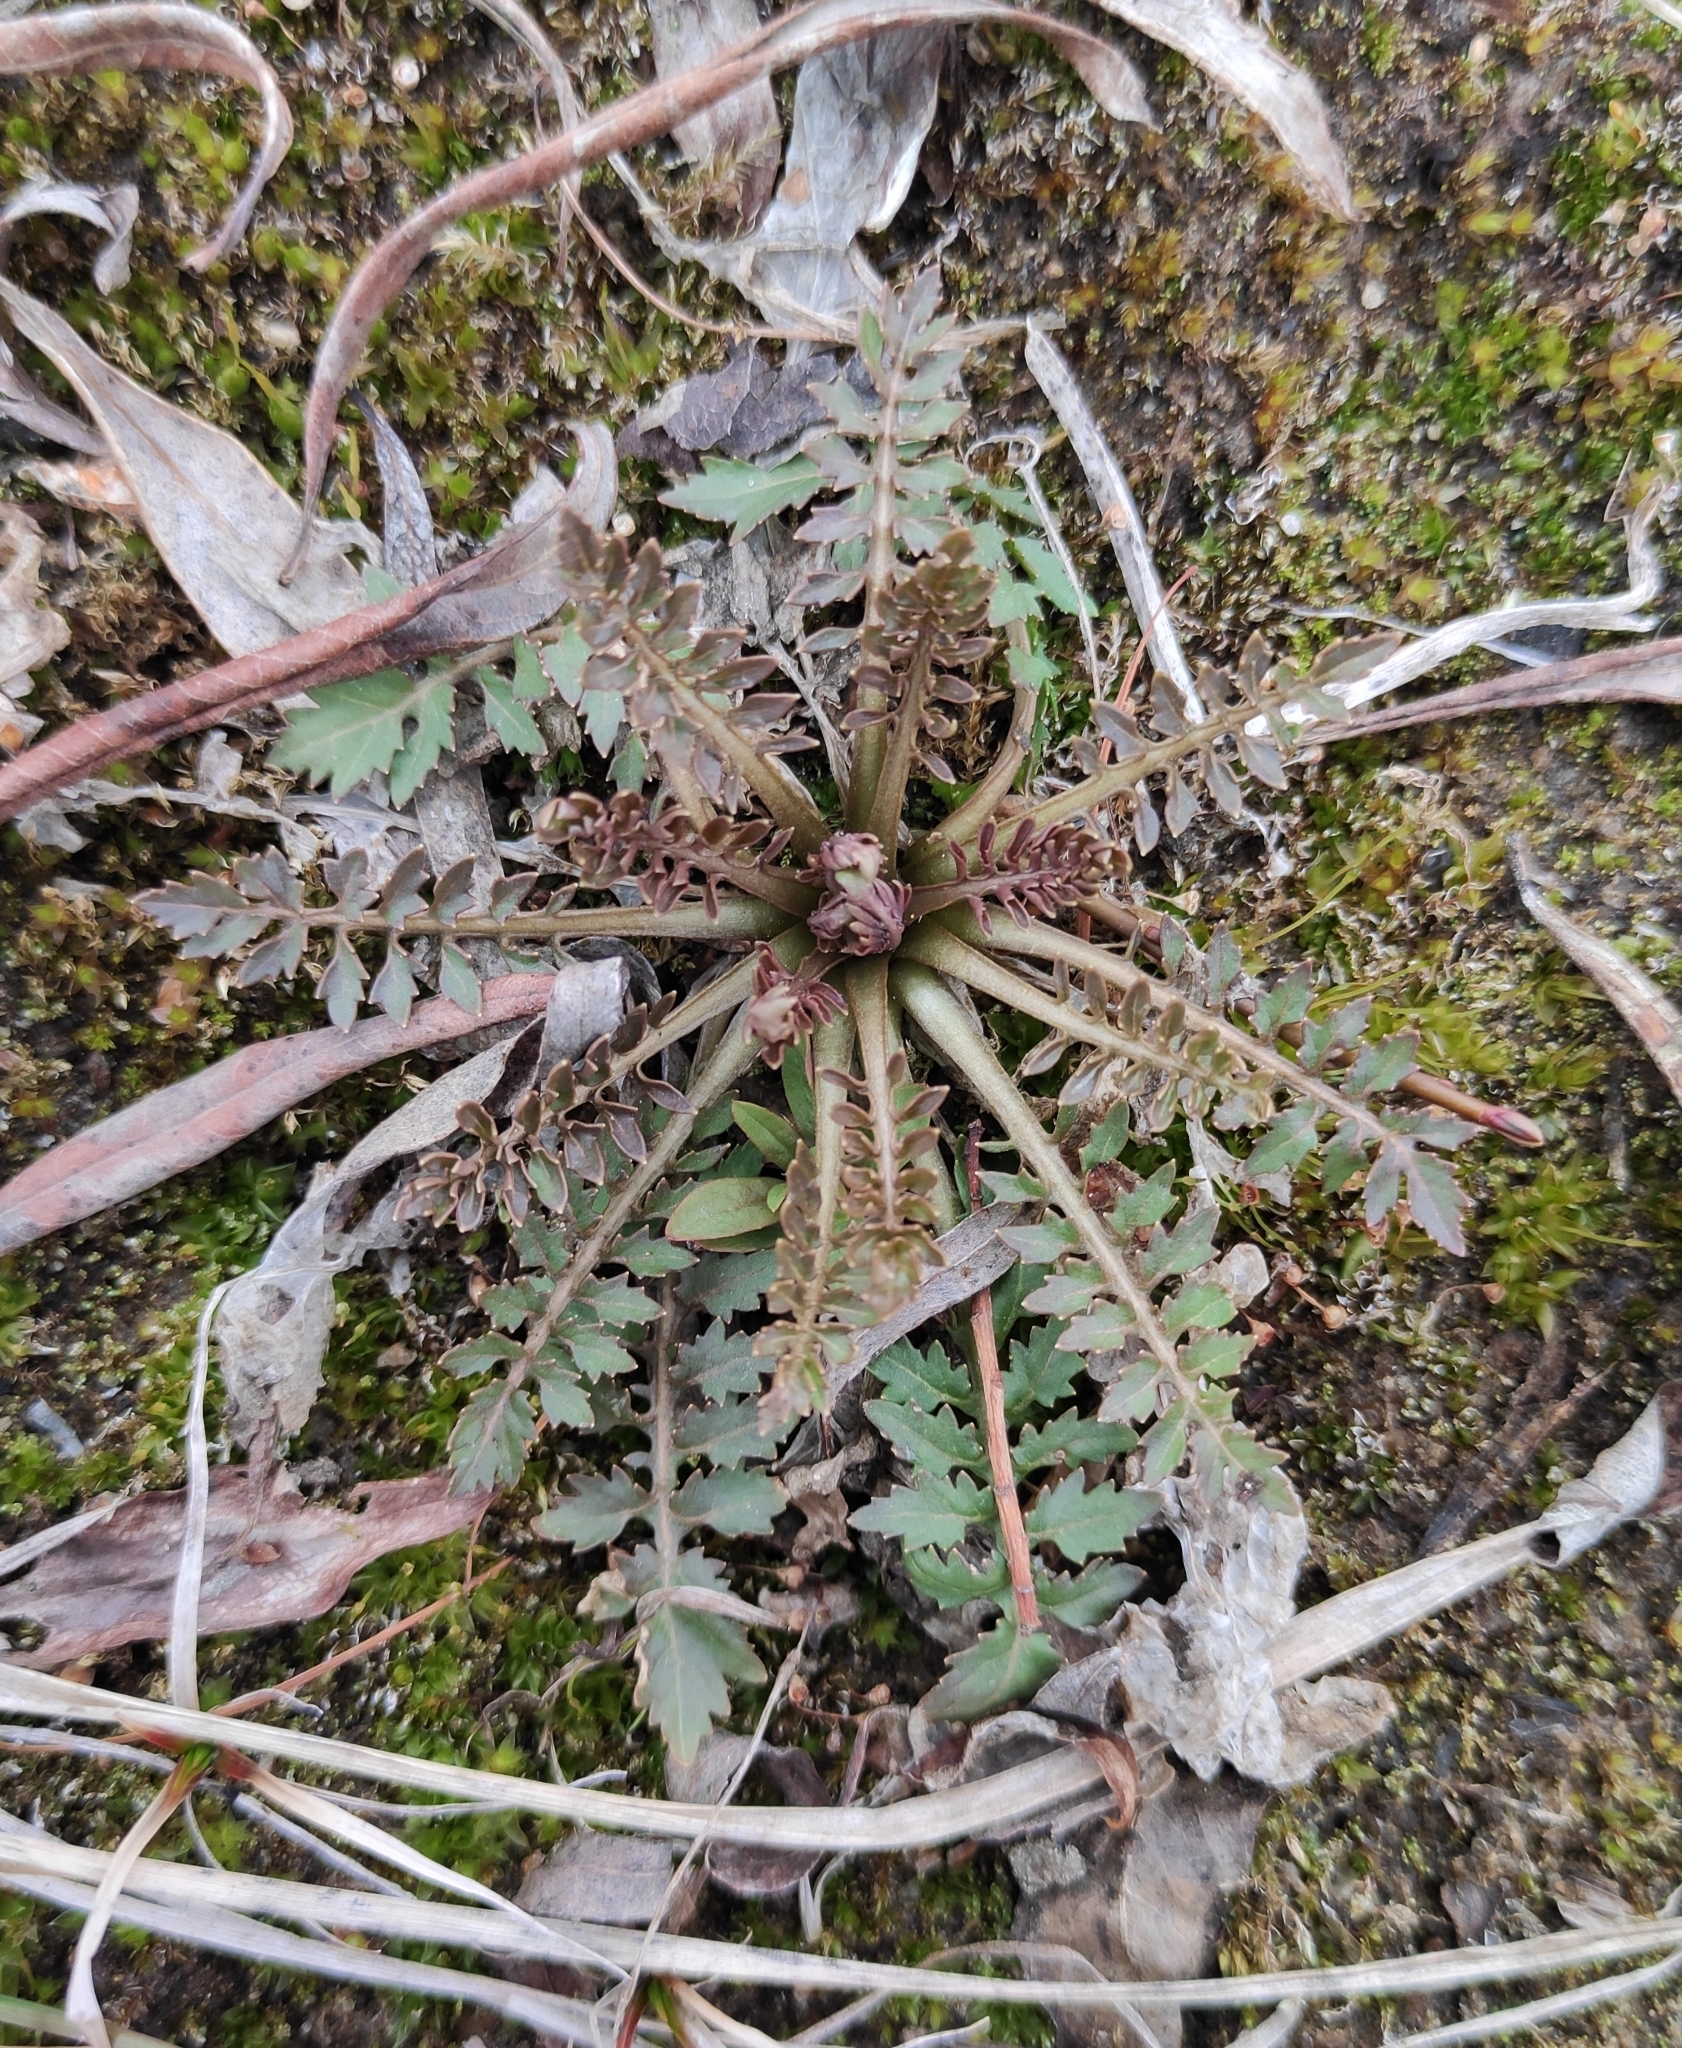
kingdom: Plantae
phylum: Tracheophyta
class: Magnoliopsida
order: Brassicales
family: Brassicaceae
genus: Rorippa
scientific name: Rorippa palustris
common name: Marsh yellow-cress
